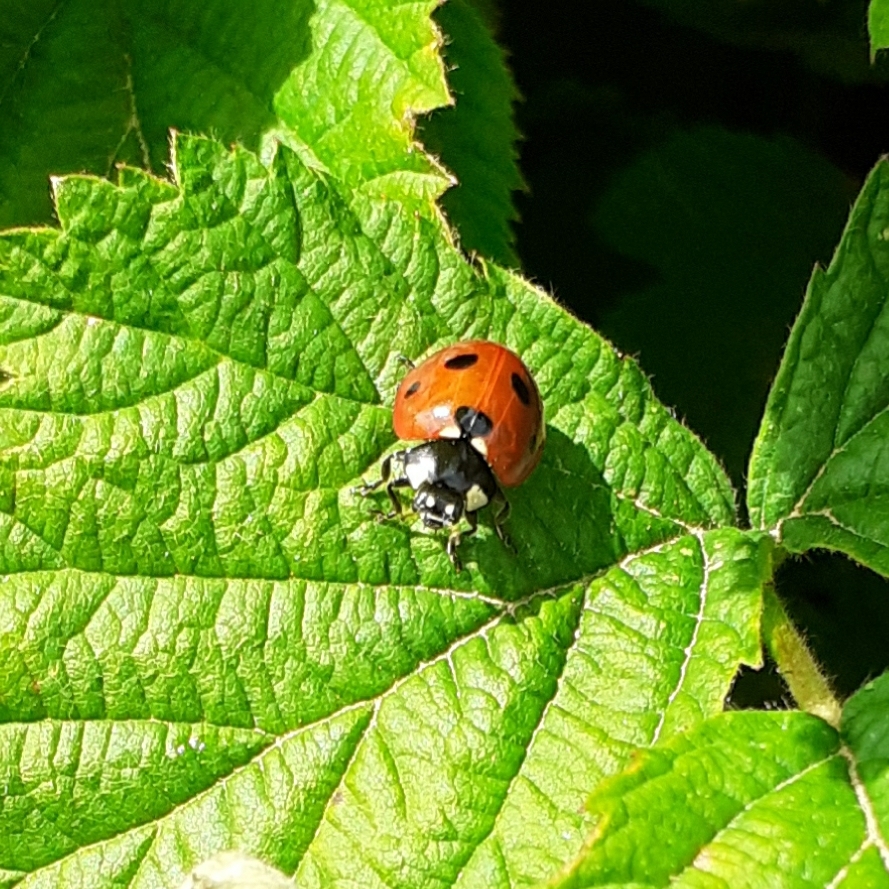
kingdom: Animalia
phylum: Arthropoda
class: Insecta
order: Coleoptera
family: Coccinellidae
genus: Coccinella
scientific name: Coccinella septempunctata
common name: Sevenspotted lady beetle
